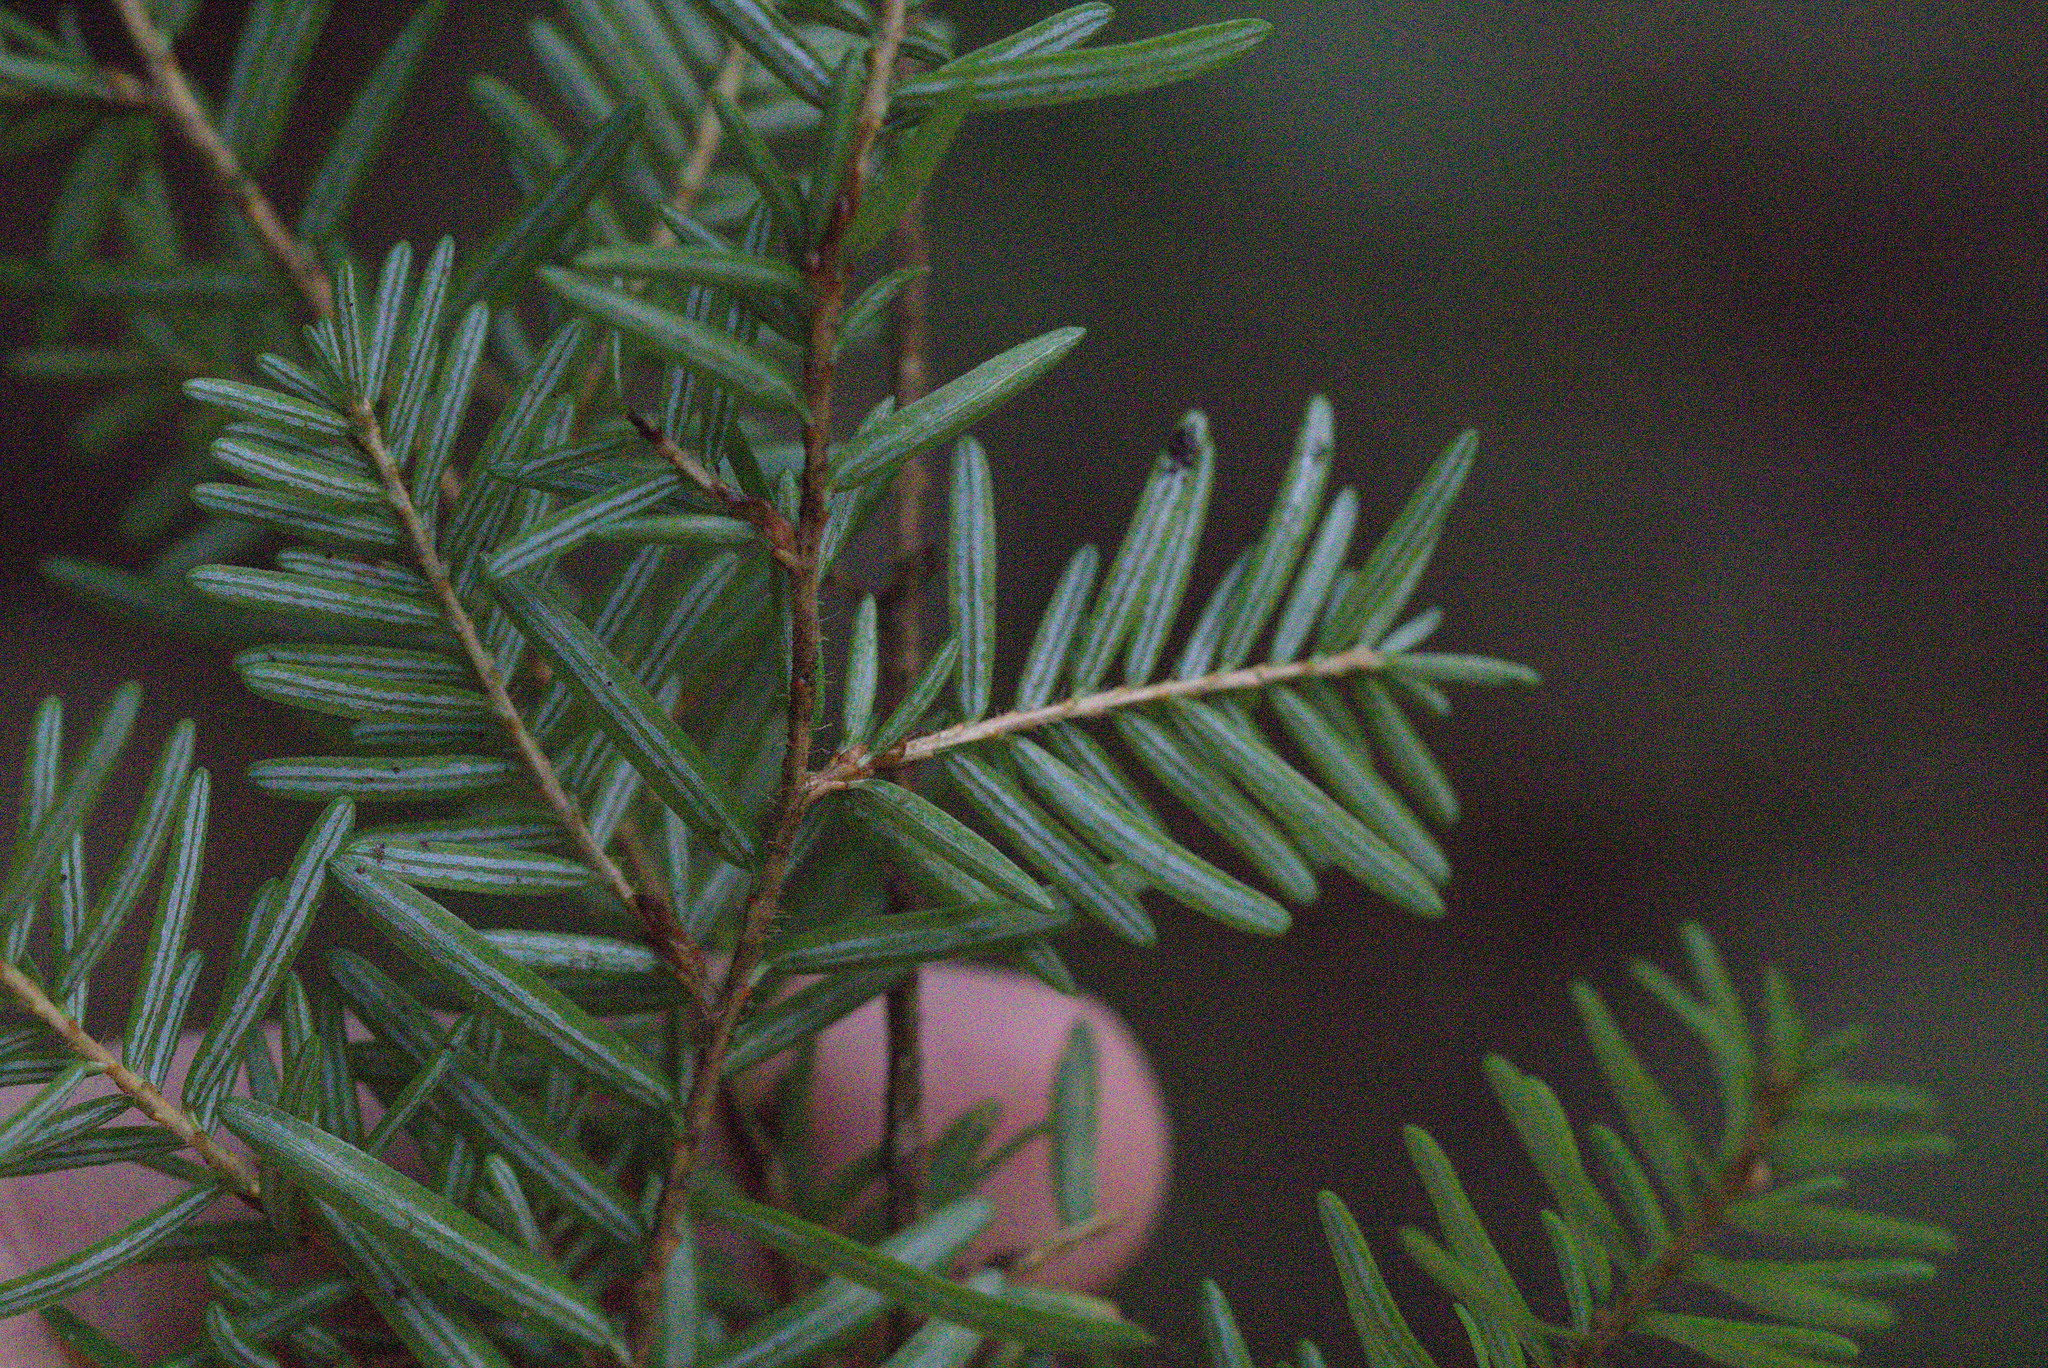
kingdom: Plantae
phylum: Tracheophyta
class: Pinopsida
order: Pinales
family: Pinaceae
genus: Tsuga
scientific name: Tsuga heterophylla
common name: Western hemlock
